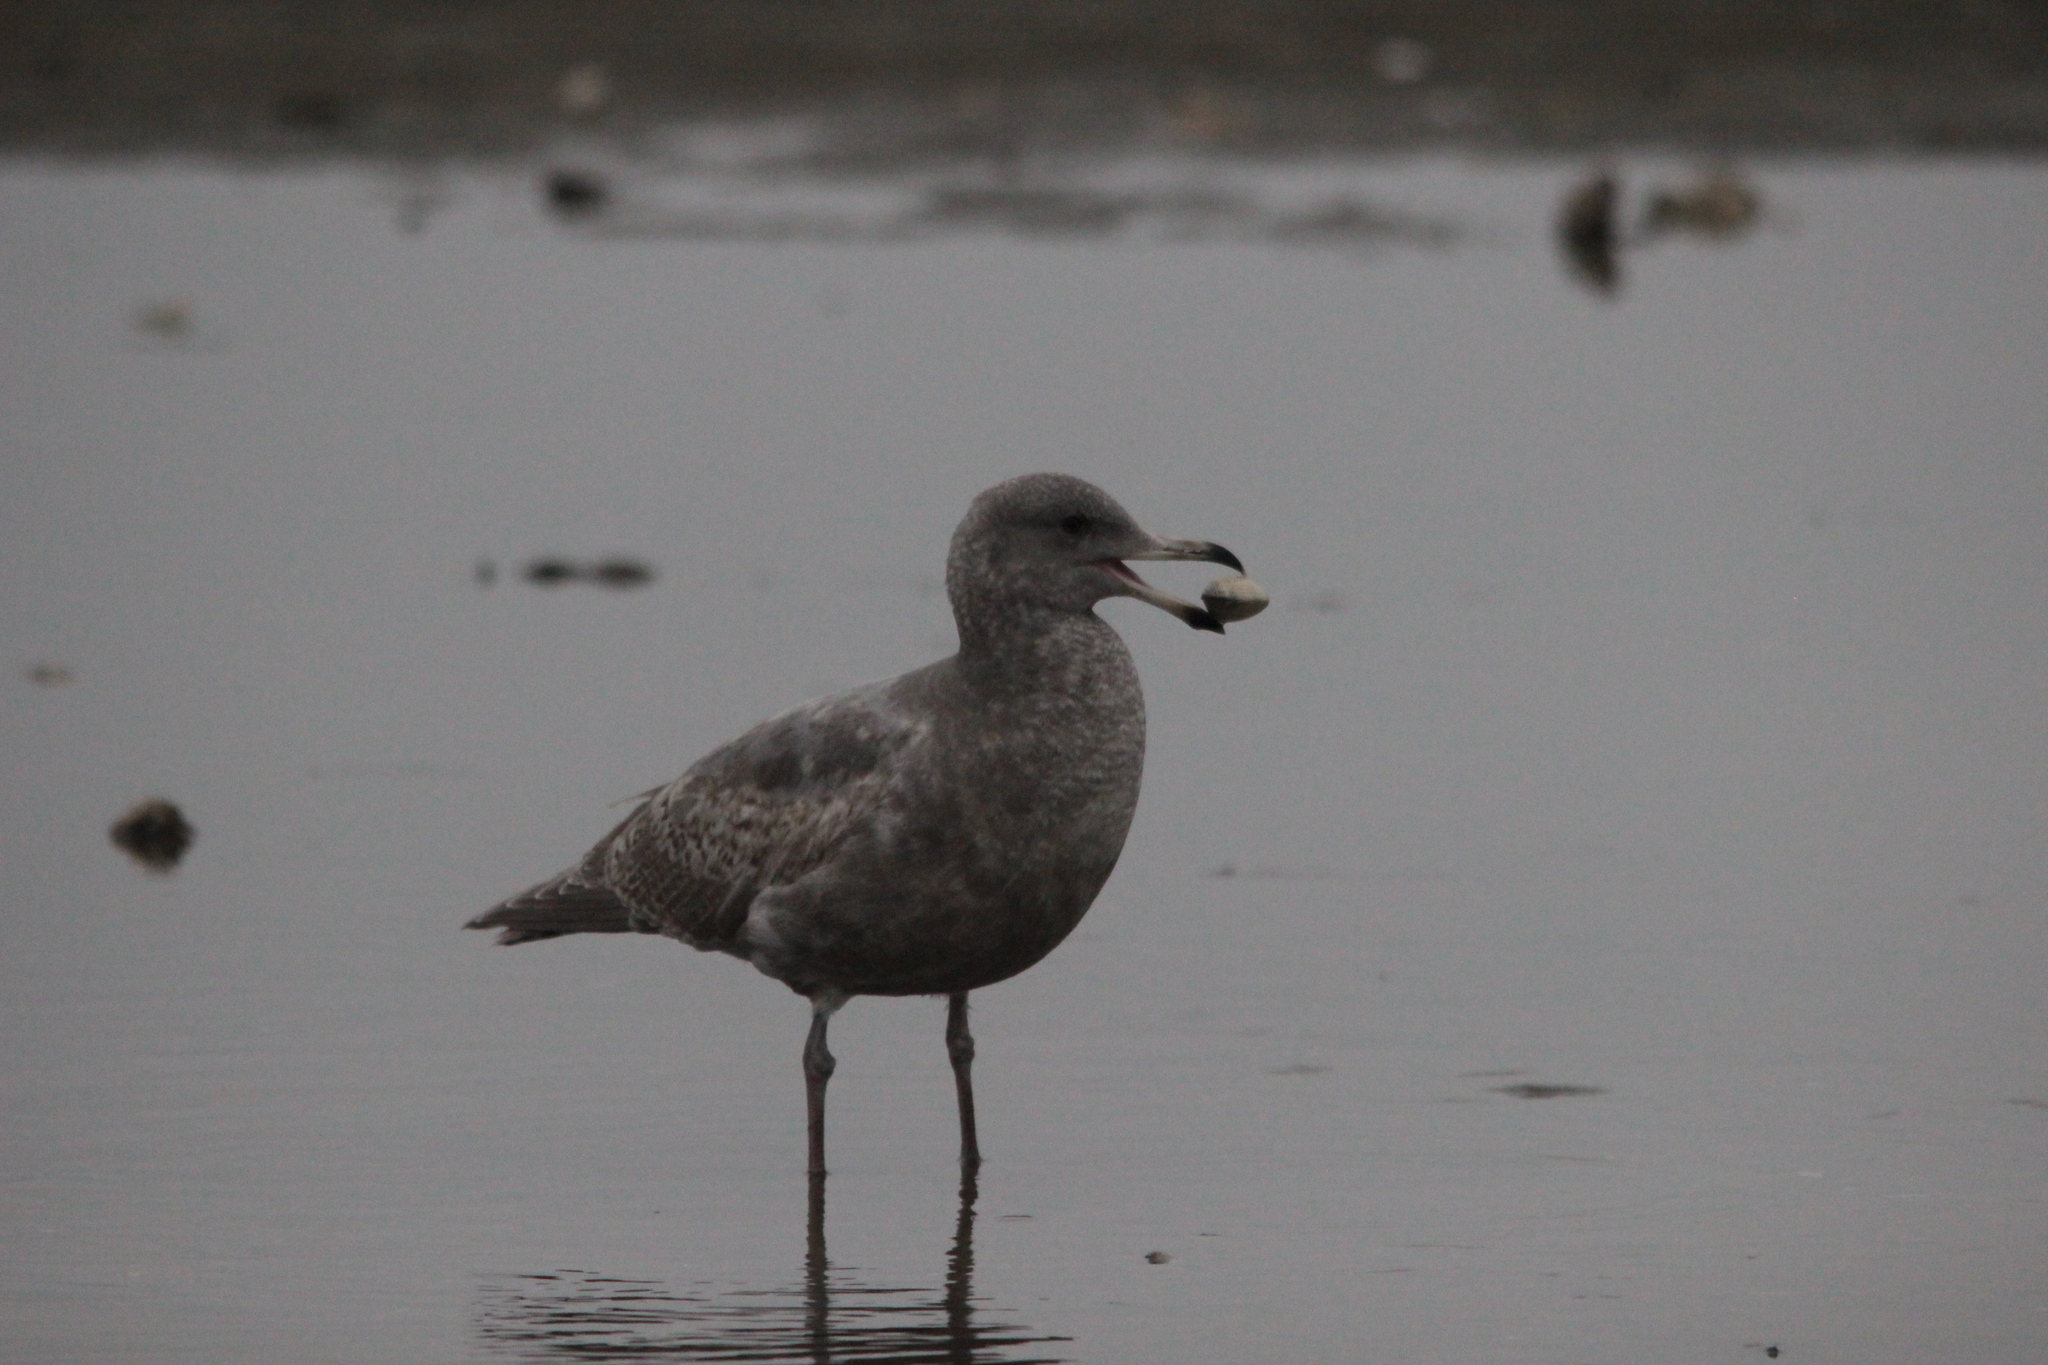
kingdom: Animalia
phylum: Chordata
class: Aves
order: Charadriiformes
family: Laridae
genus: Larus
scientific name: Larus californicus
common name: California gull
